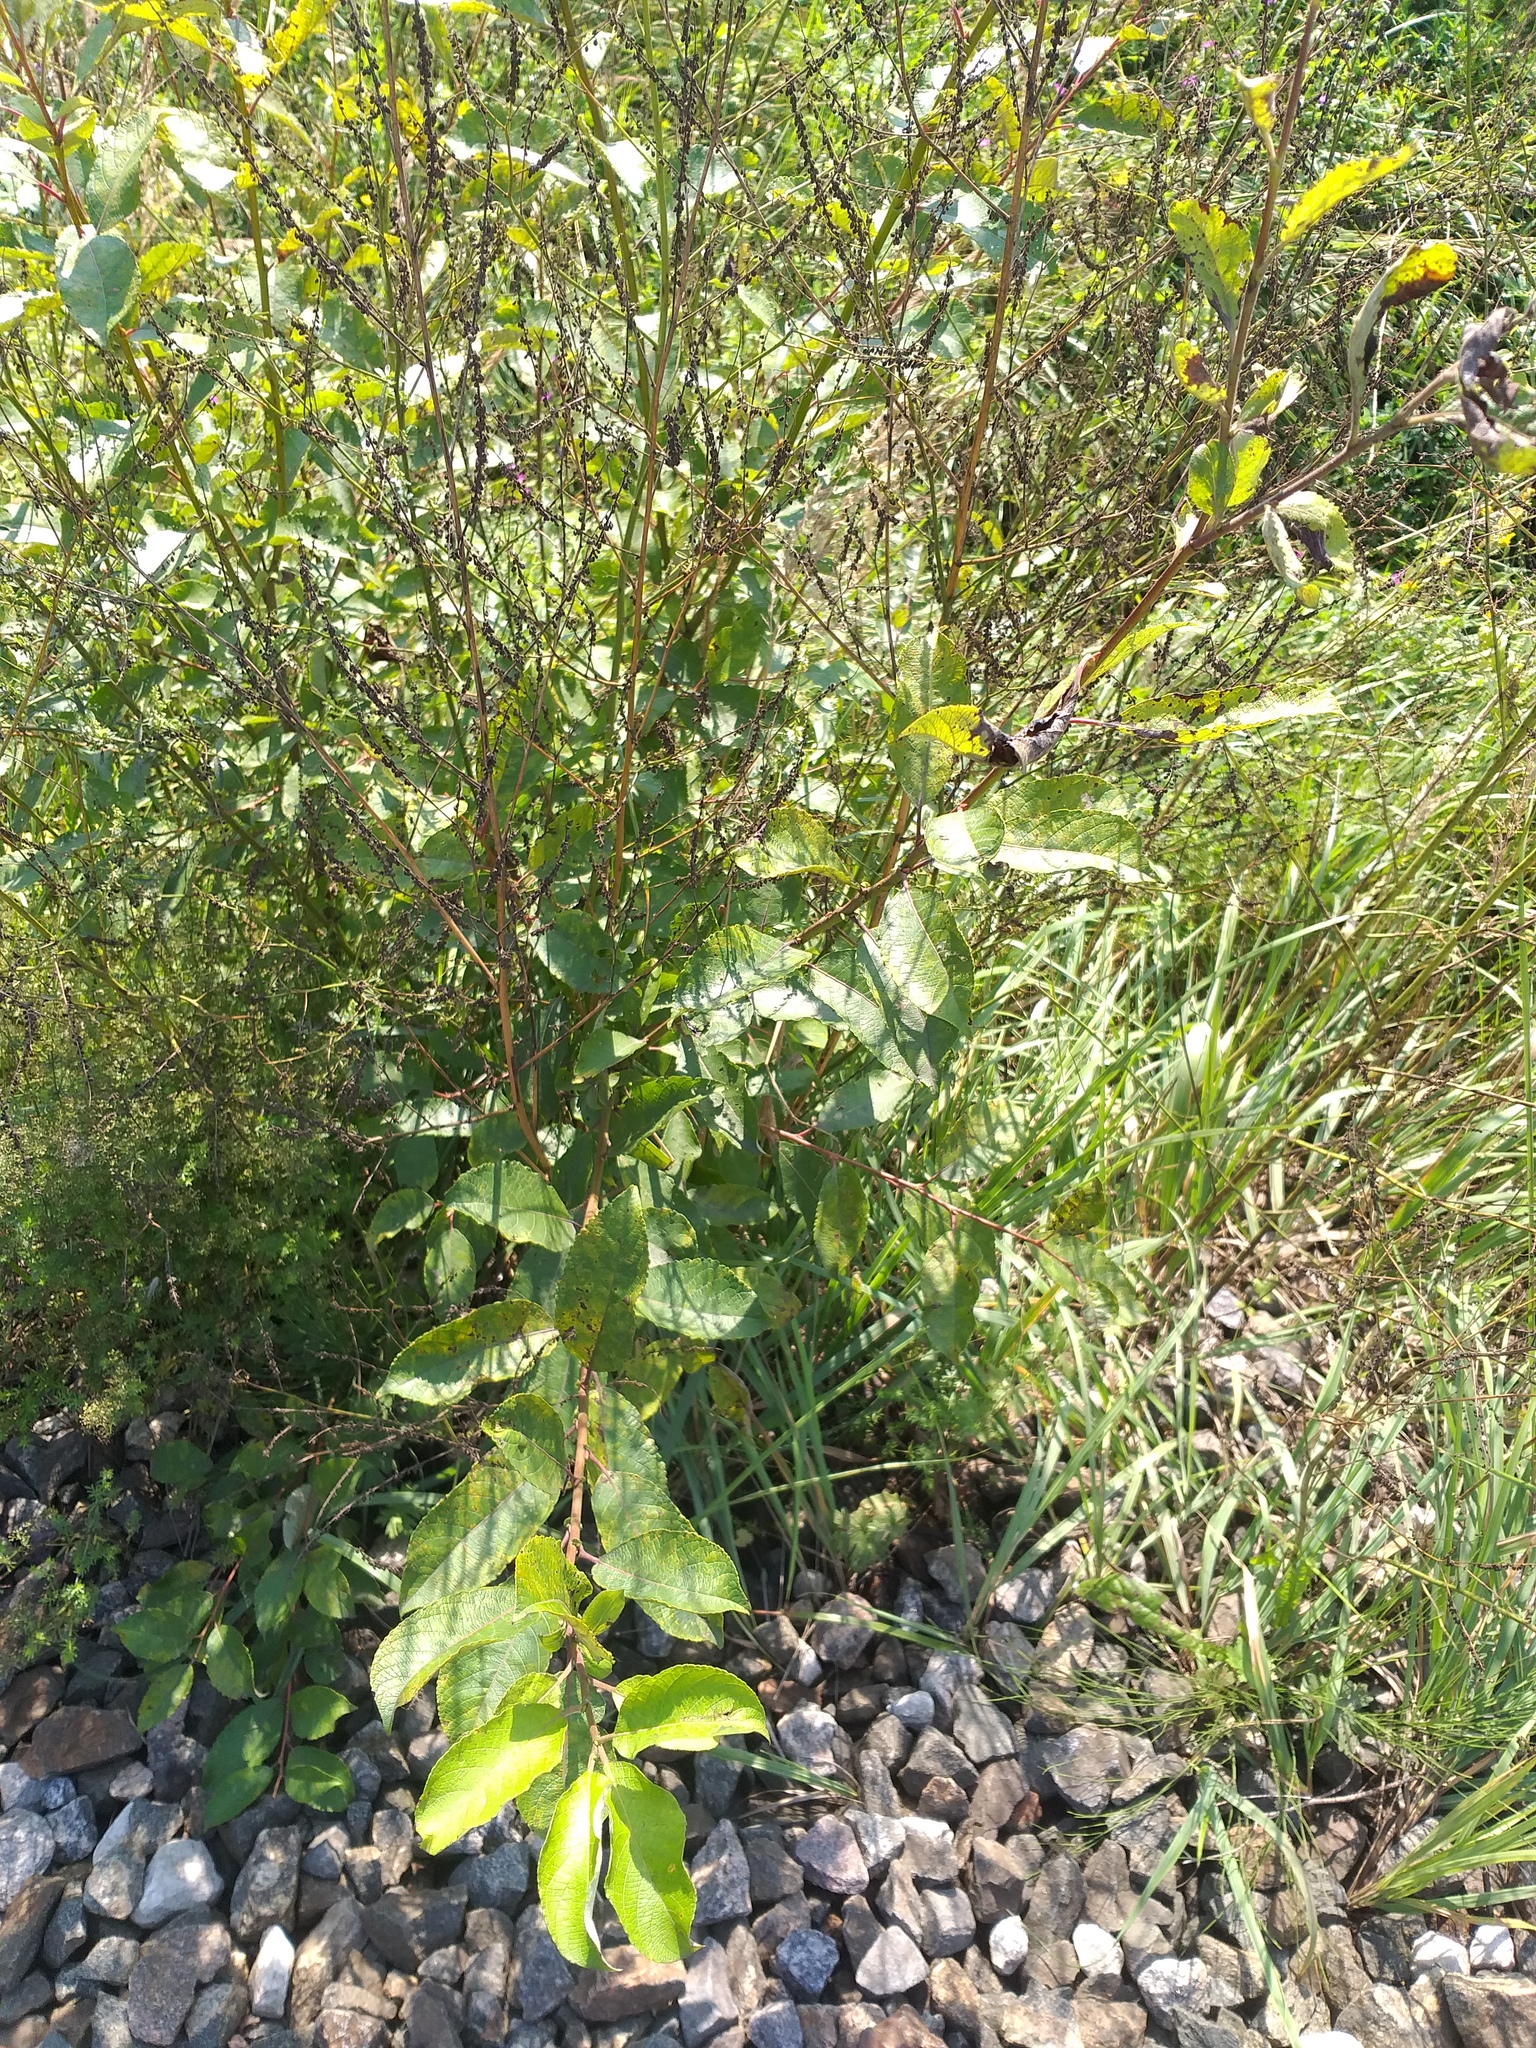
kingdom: Plantae
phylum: Tracheophyta
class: Magnoliopsida
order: Malpighiales
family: Salicaceae
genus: Salix
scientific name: Salix caprea
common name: Goat willow
